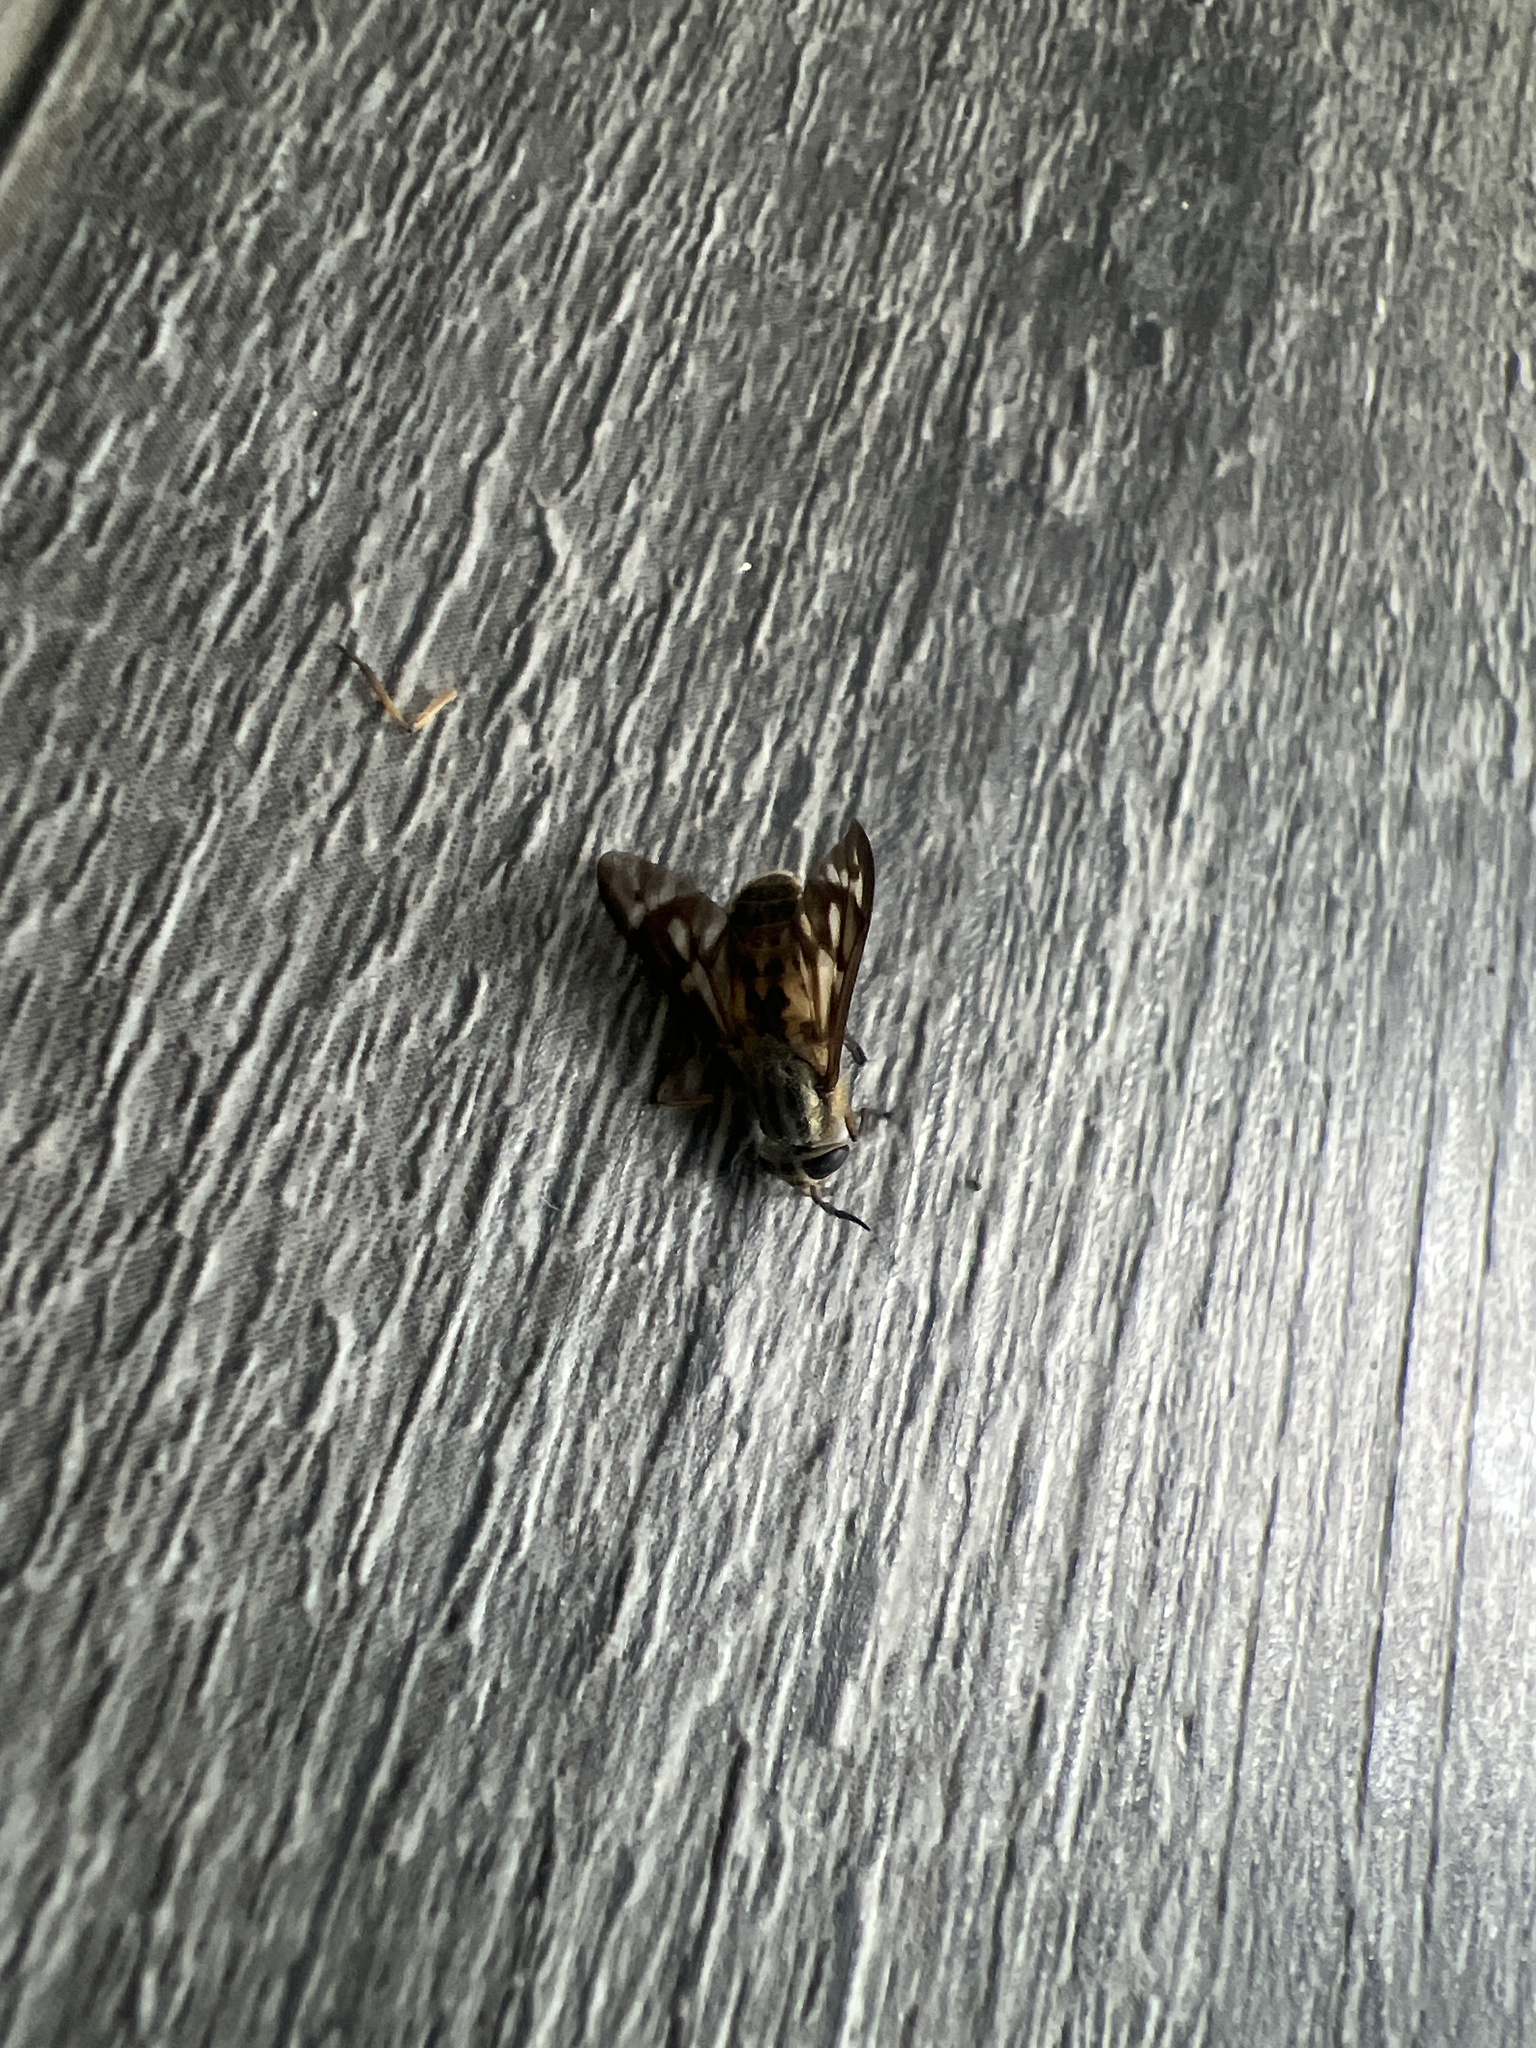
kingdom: Animalia
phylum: Arthropoda
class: Insecta
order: Diptera
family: Tabanidae
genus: Chrysops
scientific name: Chrysops discalis
